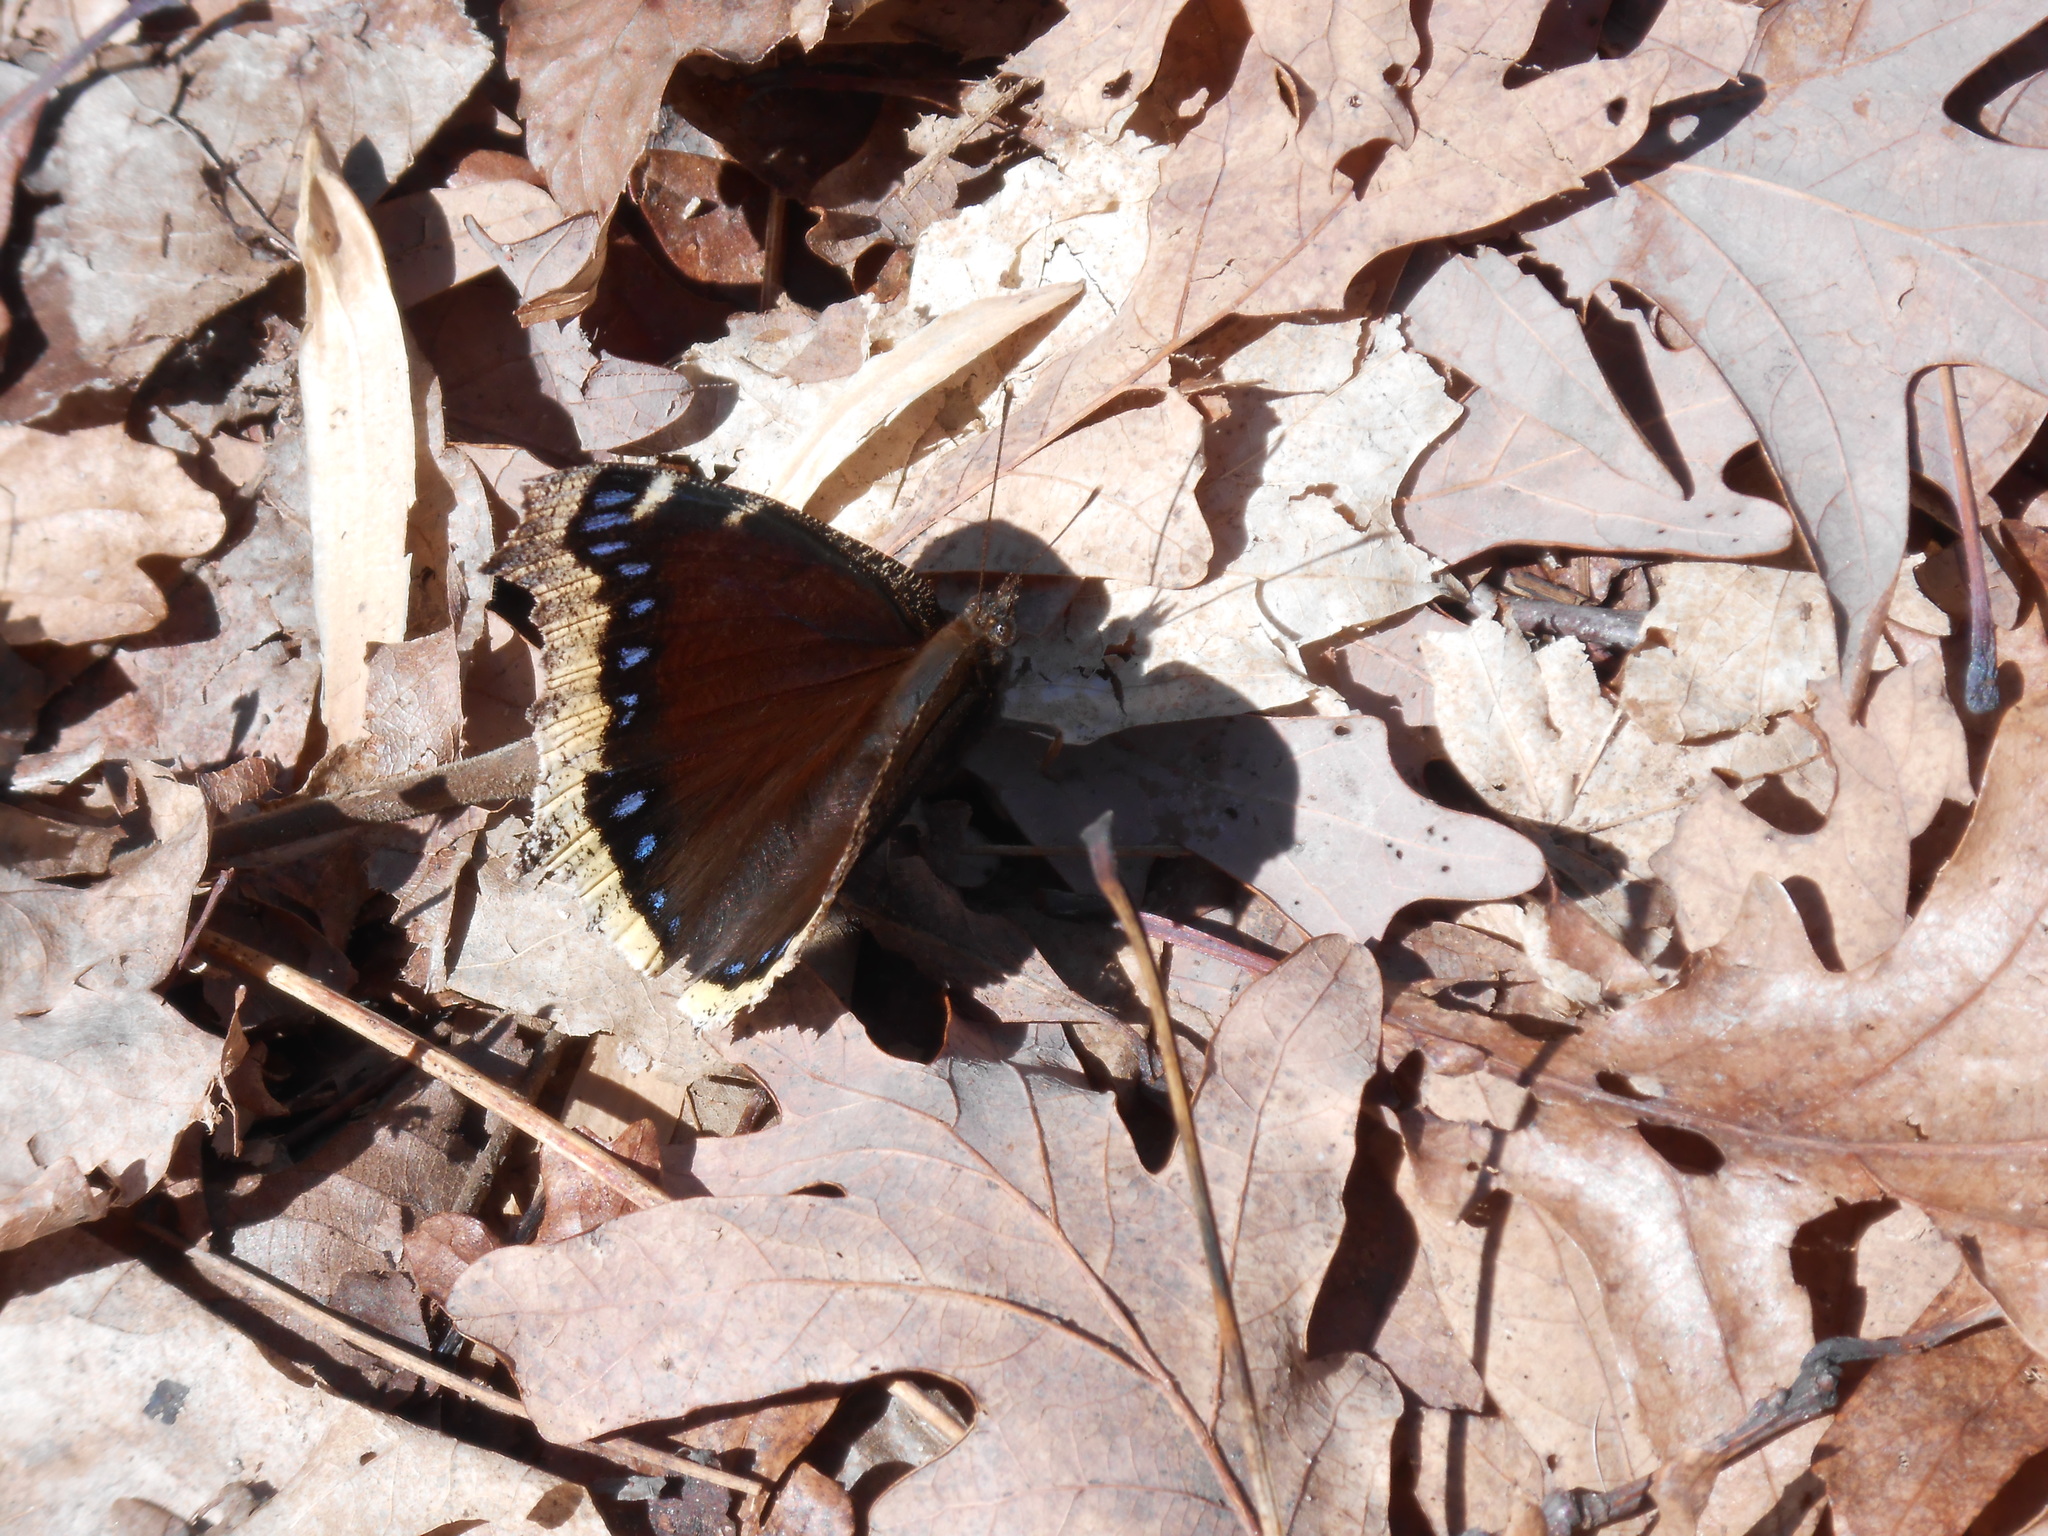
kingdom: Animalia
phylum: Arthropoda
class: Insecta
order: Lepidoptera
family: Nymphalidae
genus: Nymphalis
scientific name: Nymphalis antiopa
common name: Camberwell beauty
